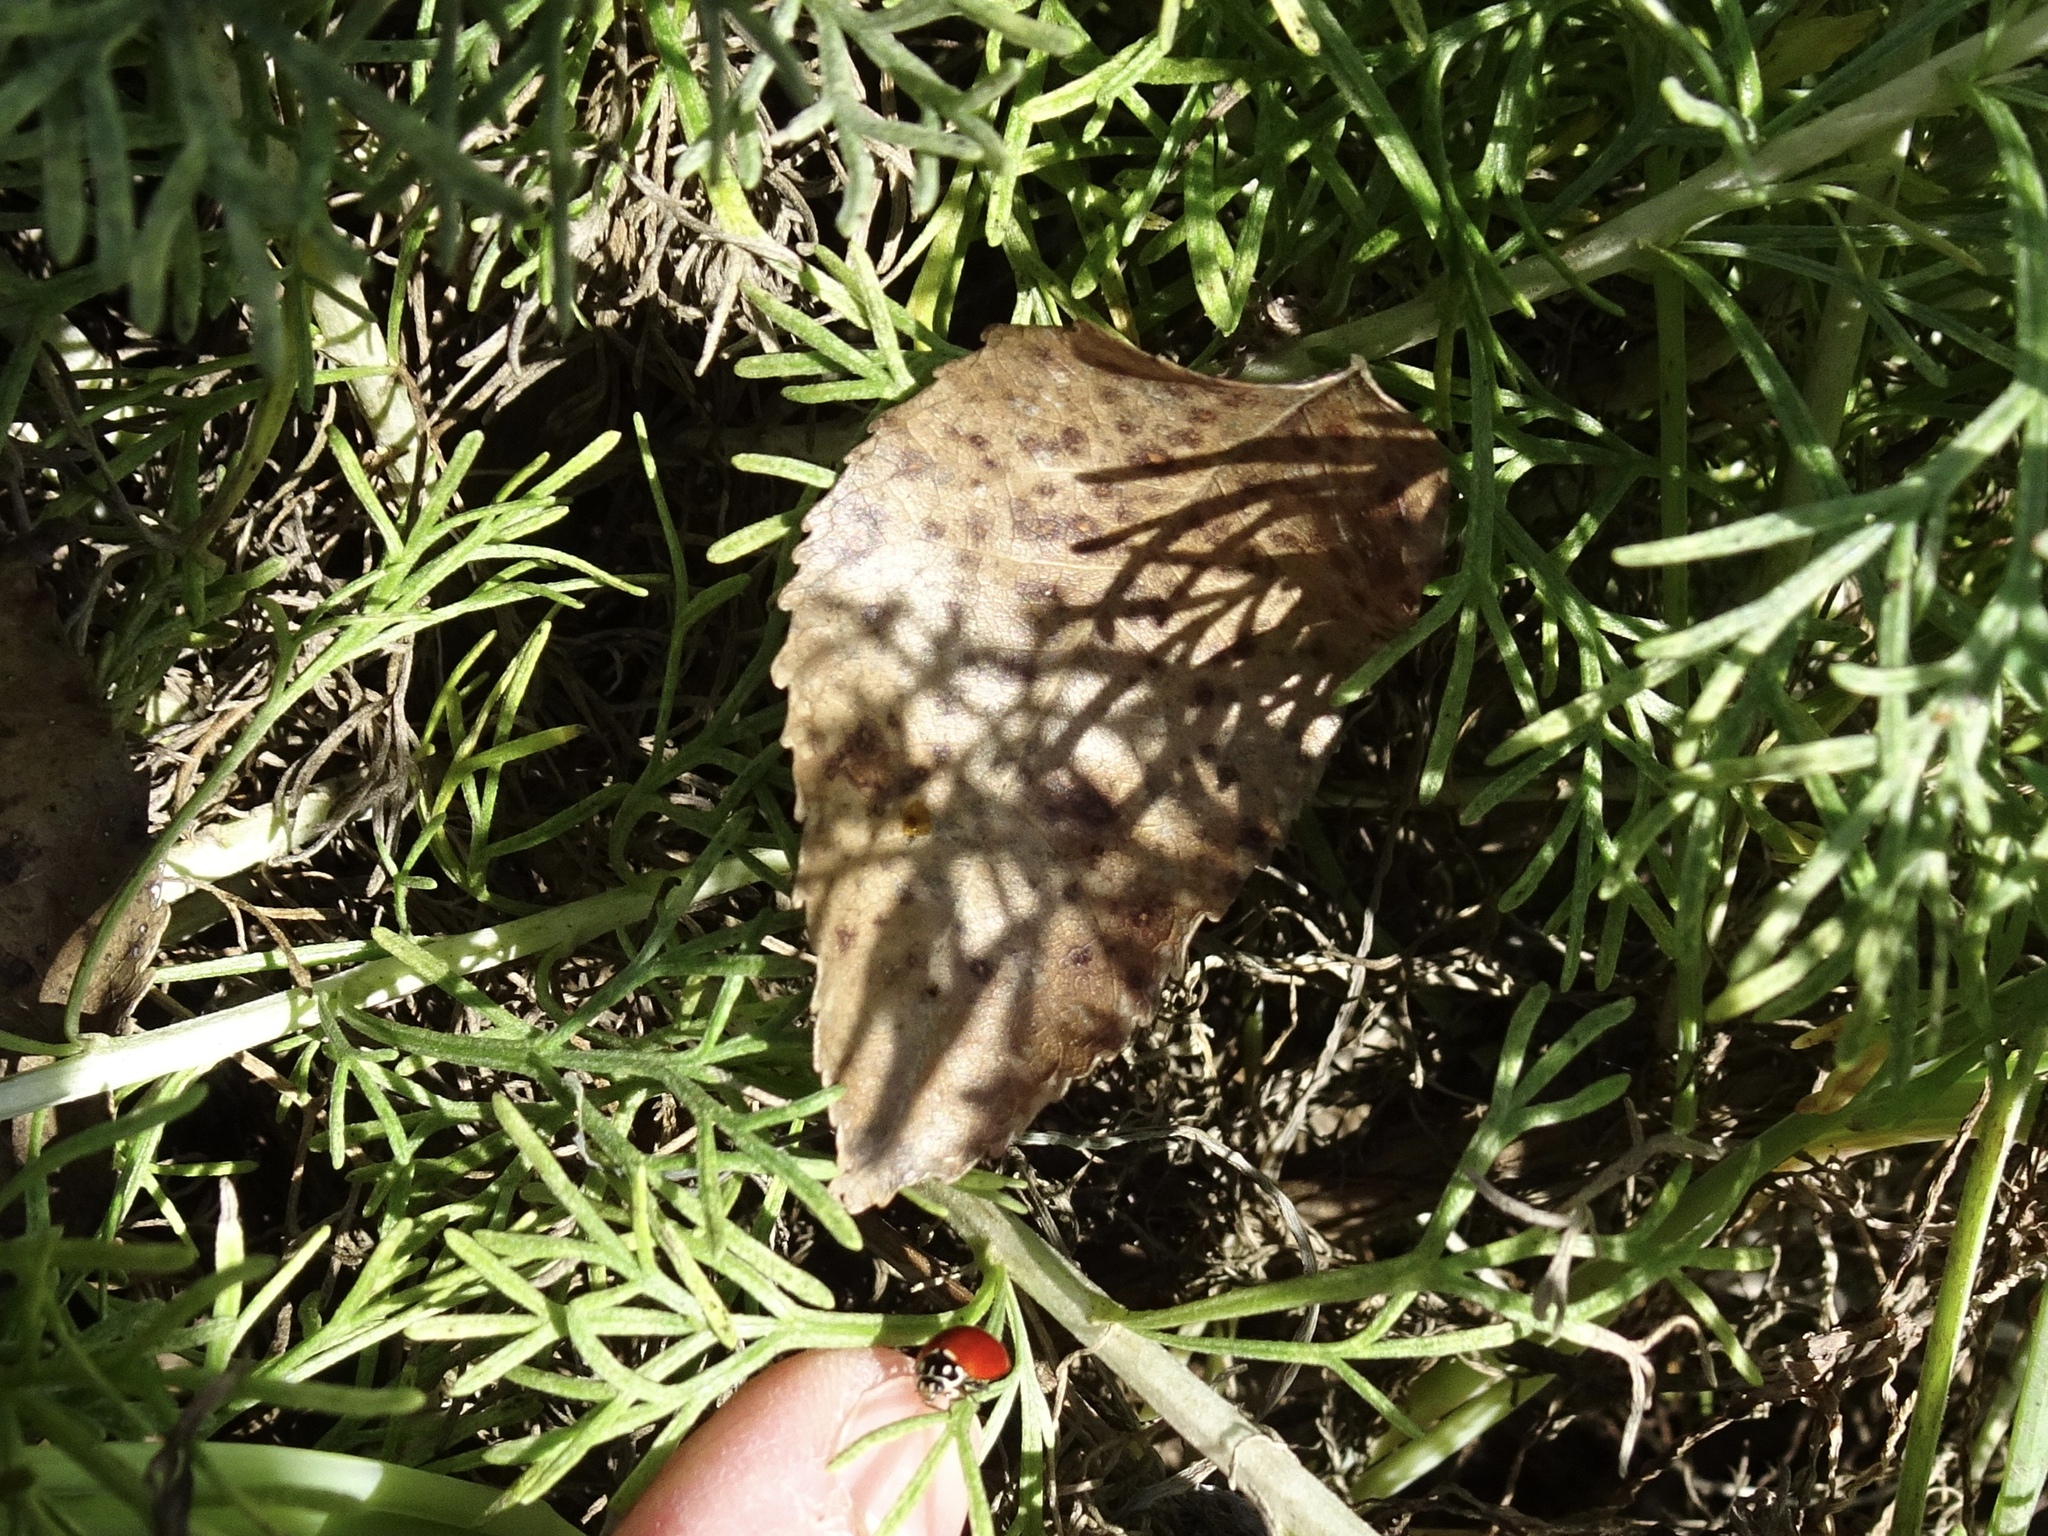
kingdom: Animalia
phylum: Arthropoda
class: Insecta
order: Coleoptera
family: Coccinellidae
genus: Cycloneda
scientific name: Cycloneda sanguinea
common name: Ladybird beetle
